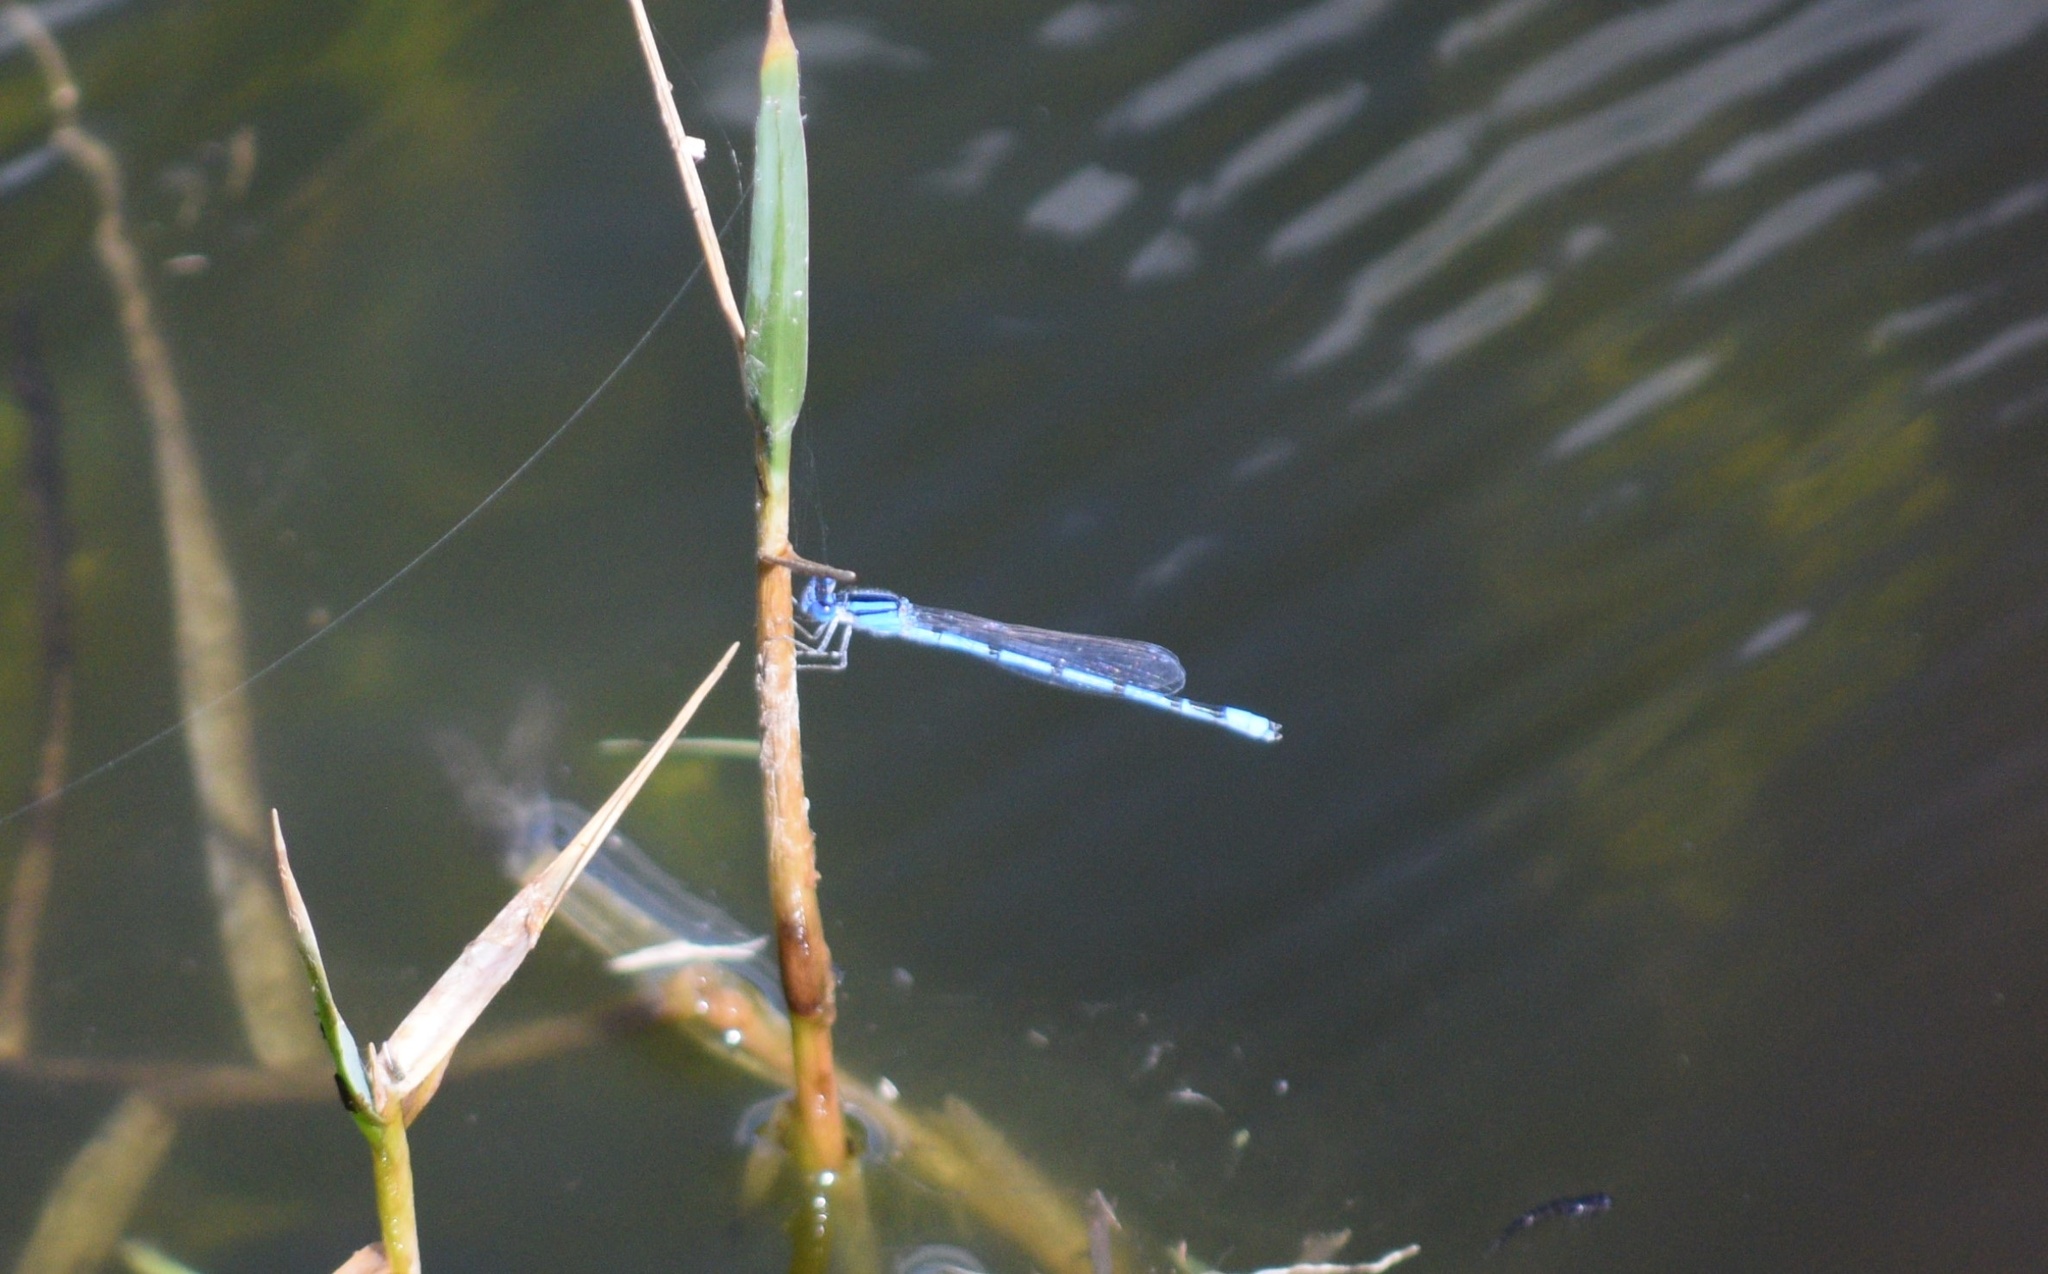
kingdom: Animalia
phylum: Arthropoda
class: Insecta
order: Odonata
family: Coenagrionidae
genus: Enallagma
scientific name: Enallagma civile
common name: Damselfly
